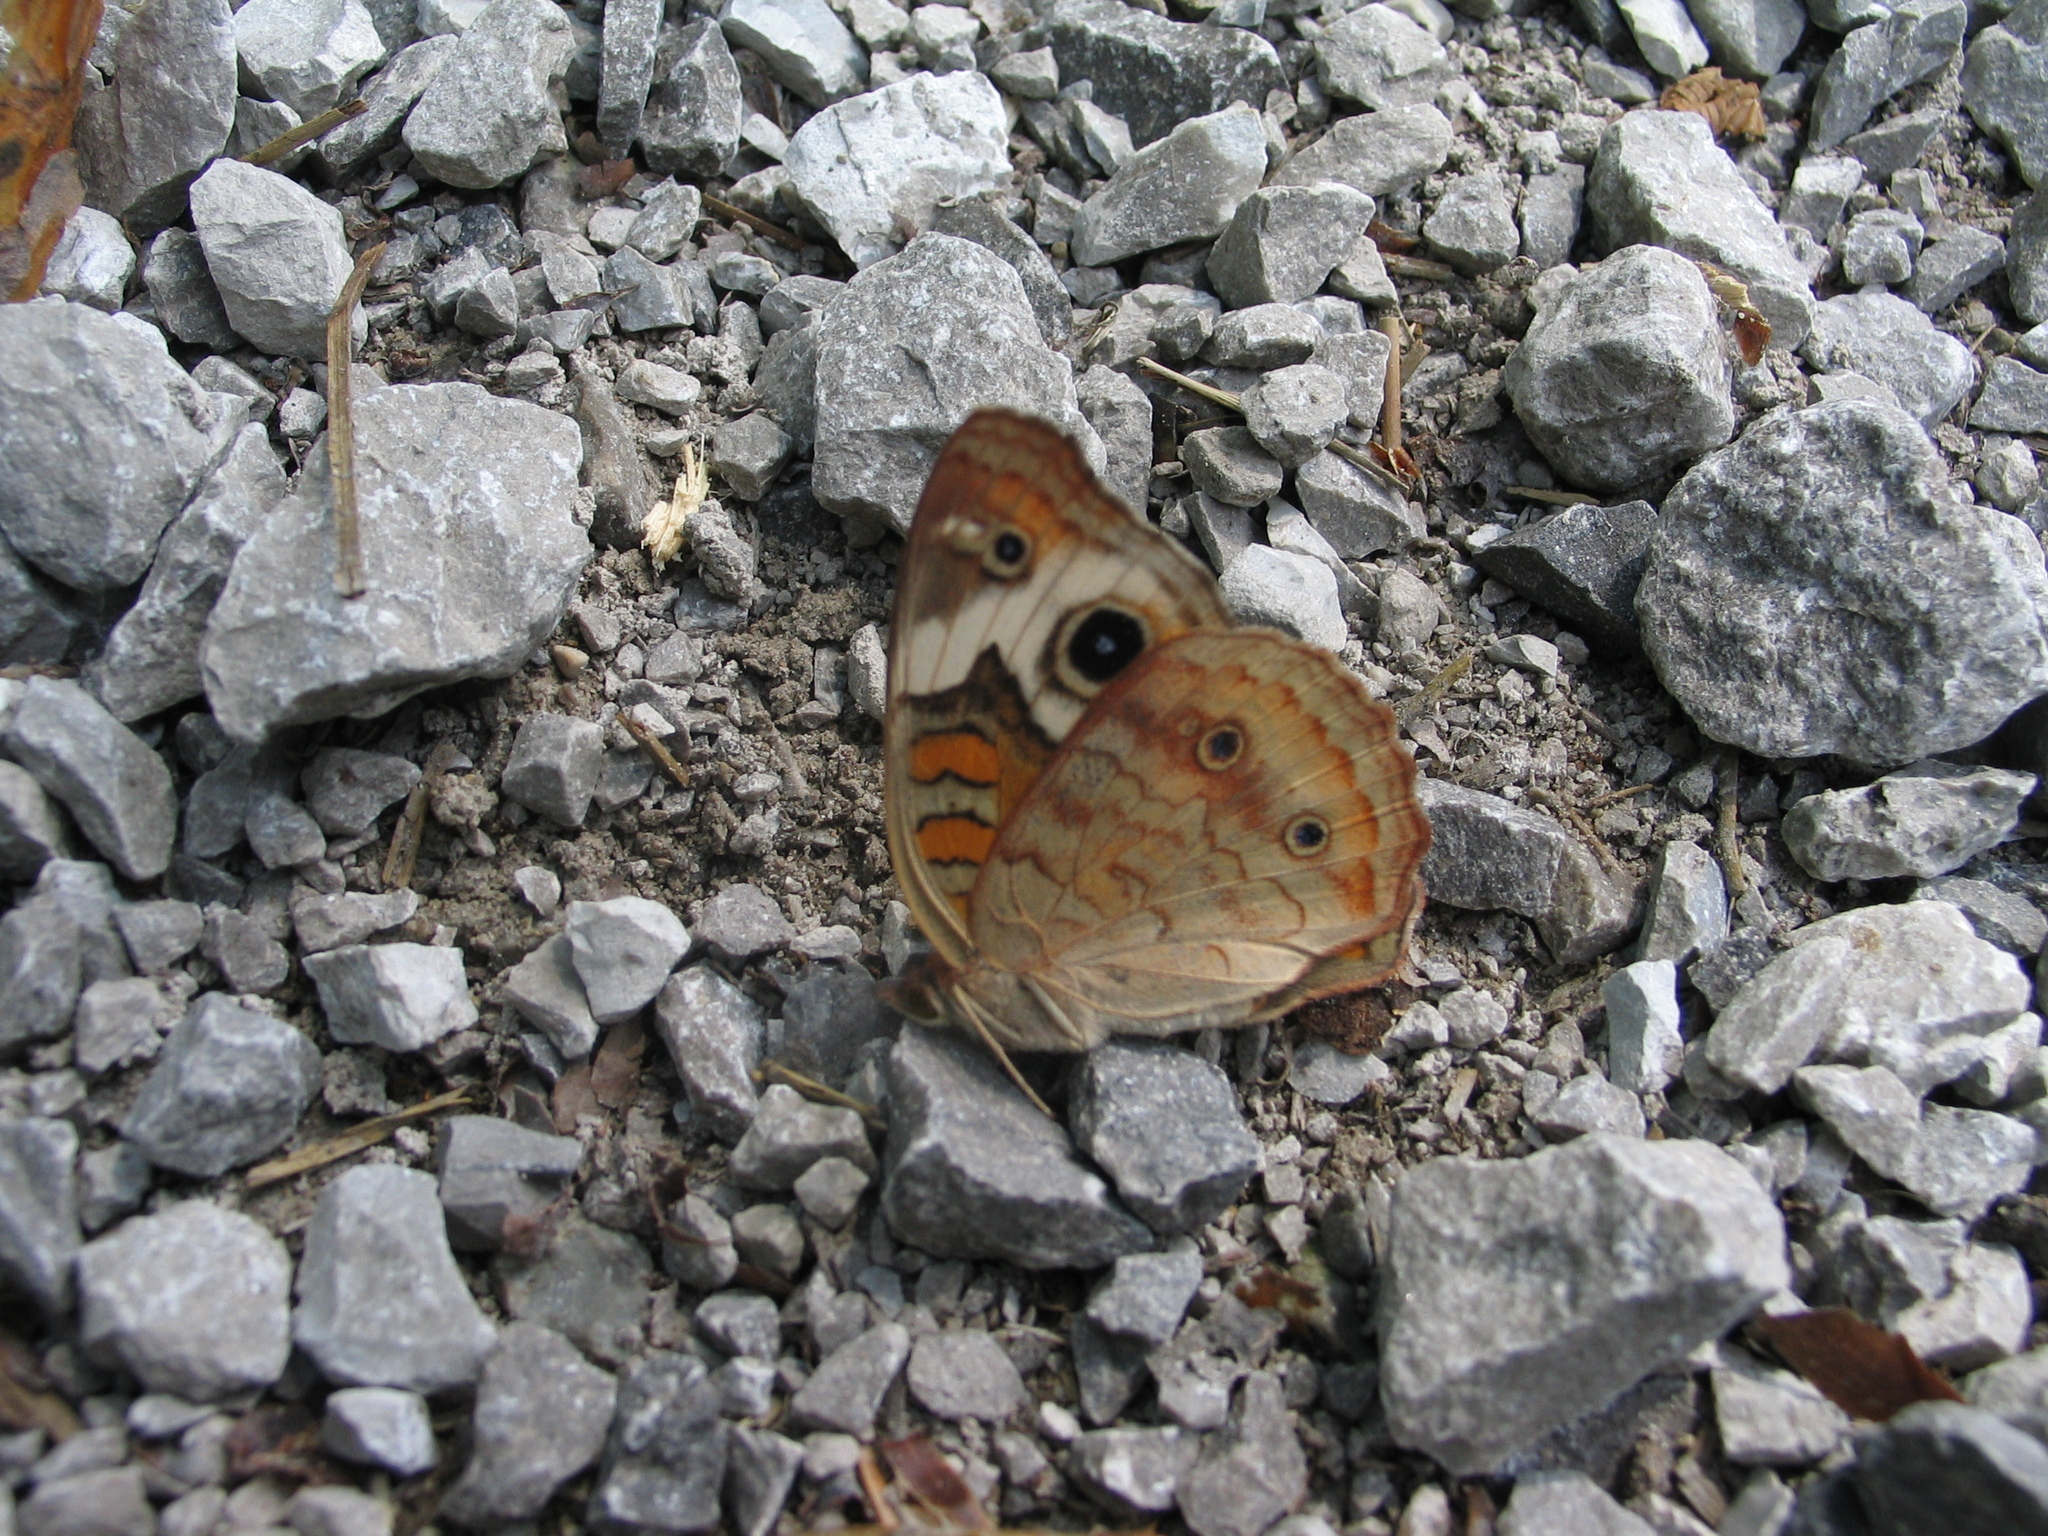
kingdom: Animalia
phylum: Arthropoda
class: Insecta
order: Lepidoptera
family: Nymphalidae
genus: Junonia
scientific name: Junonia coenia
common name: Common buckeye
